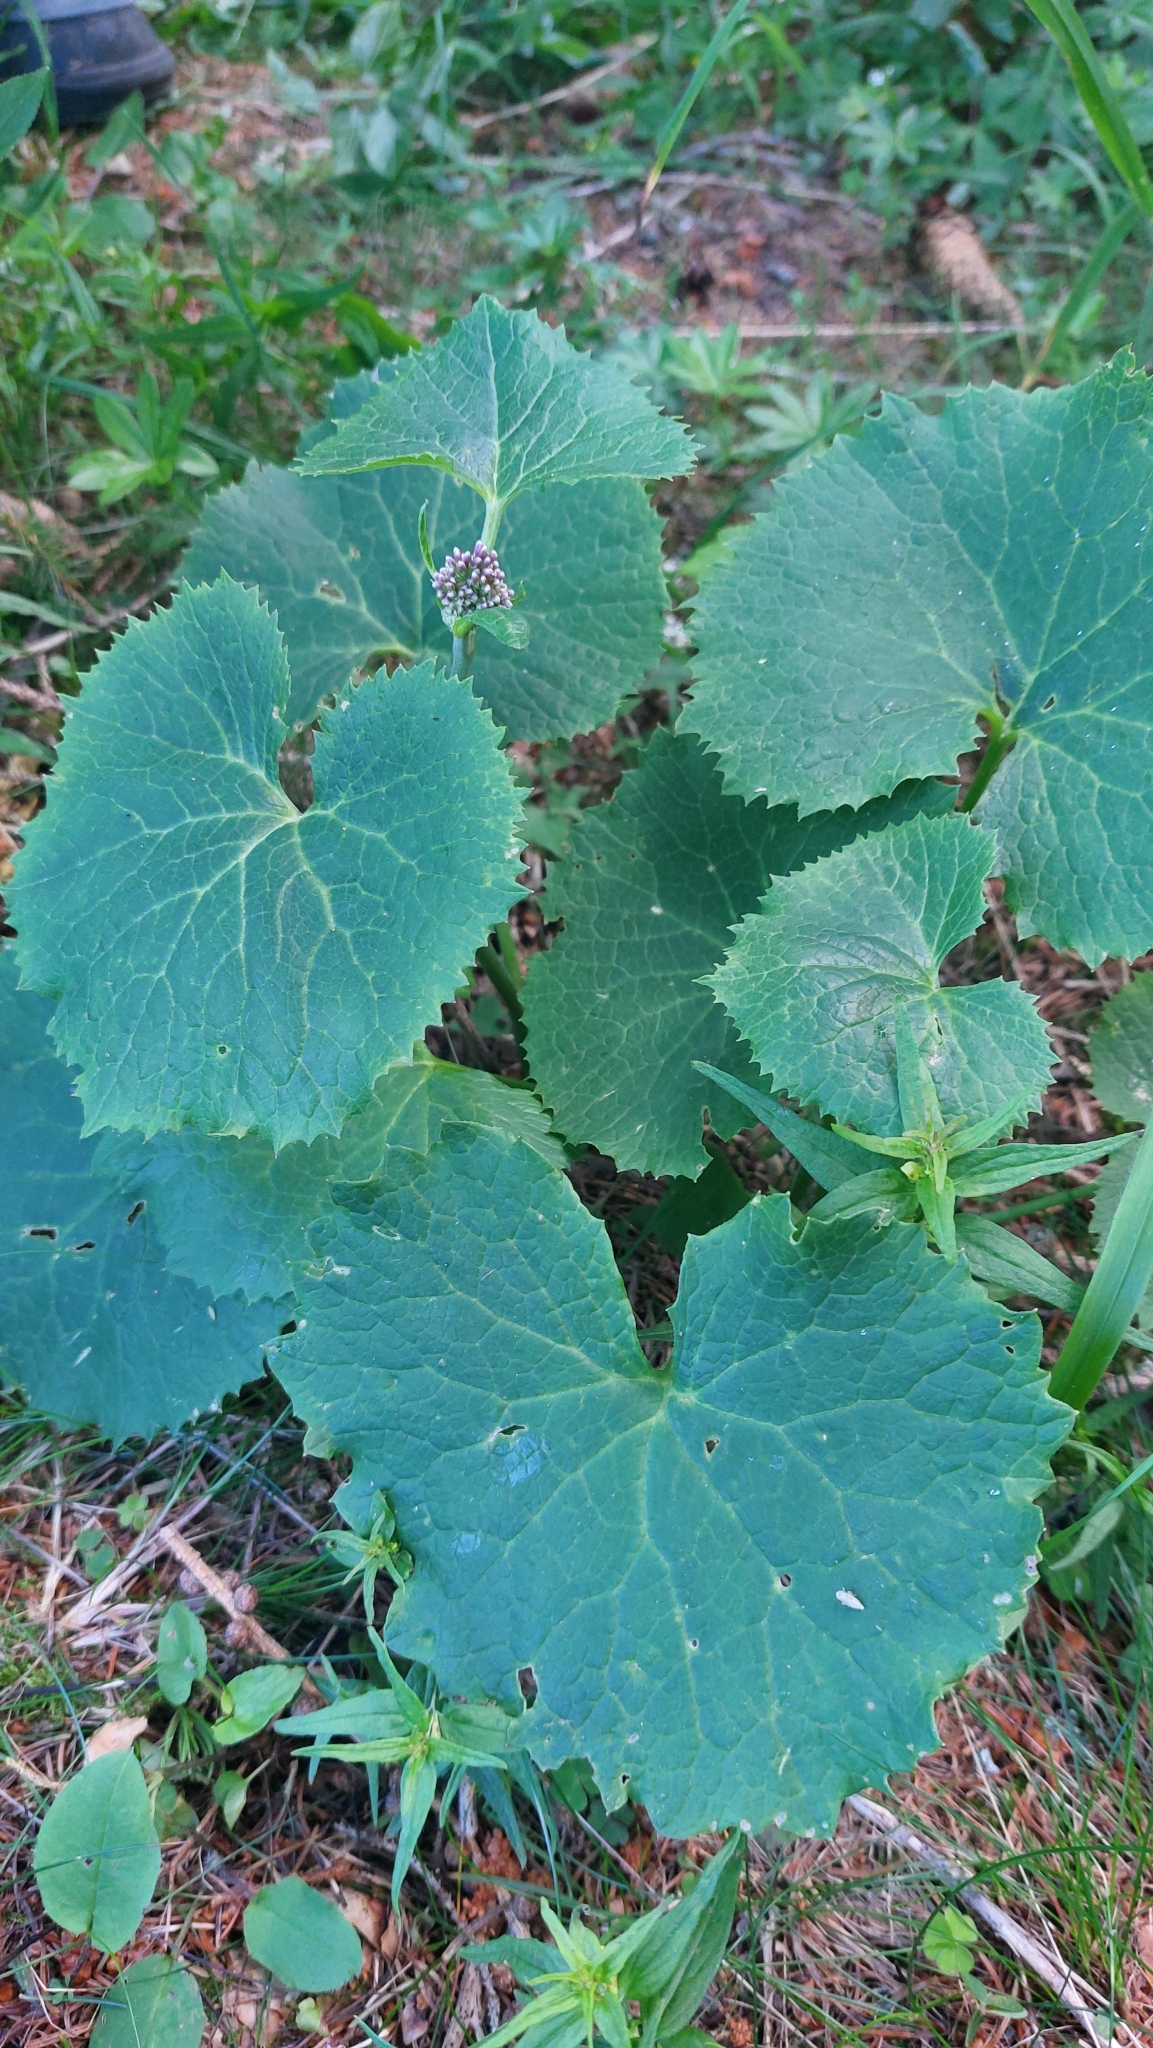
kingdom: Plantae
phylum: Tracheophyta
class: Magnoliopsida
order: Asterales
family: Asteraceae
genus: Adenostyles
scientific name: Adenostyles alpina
